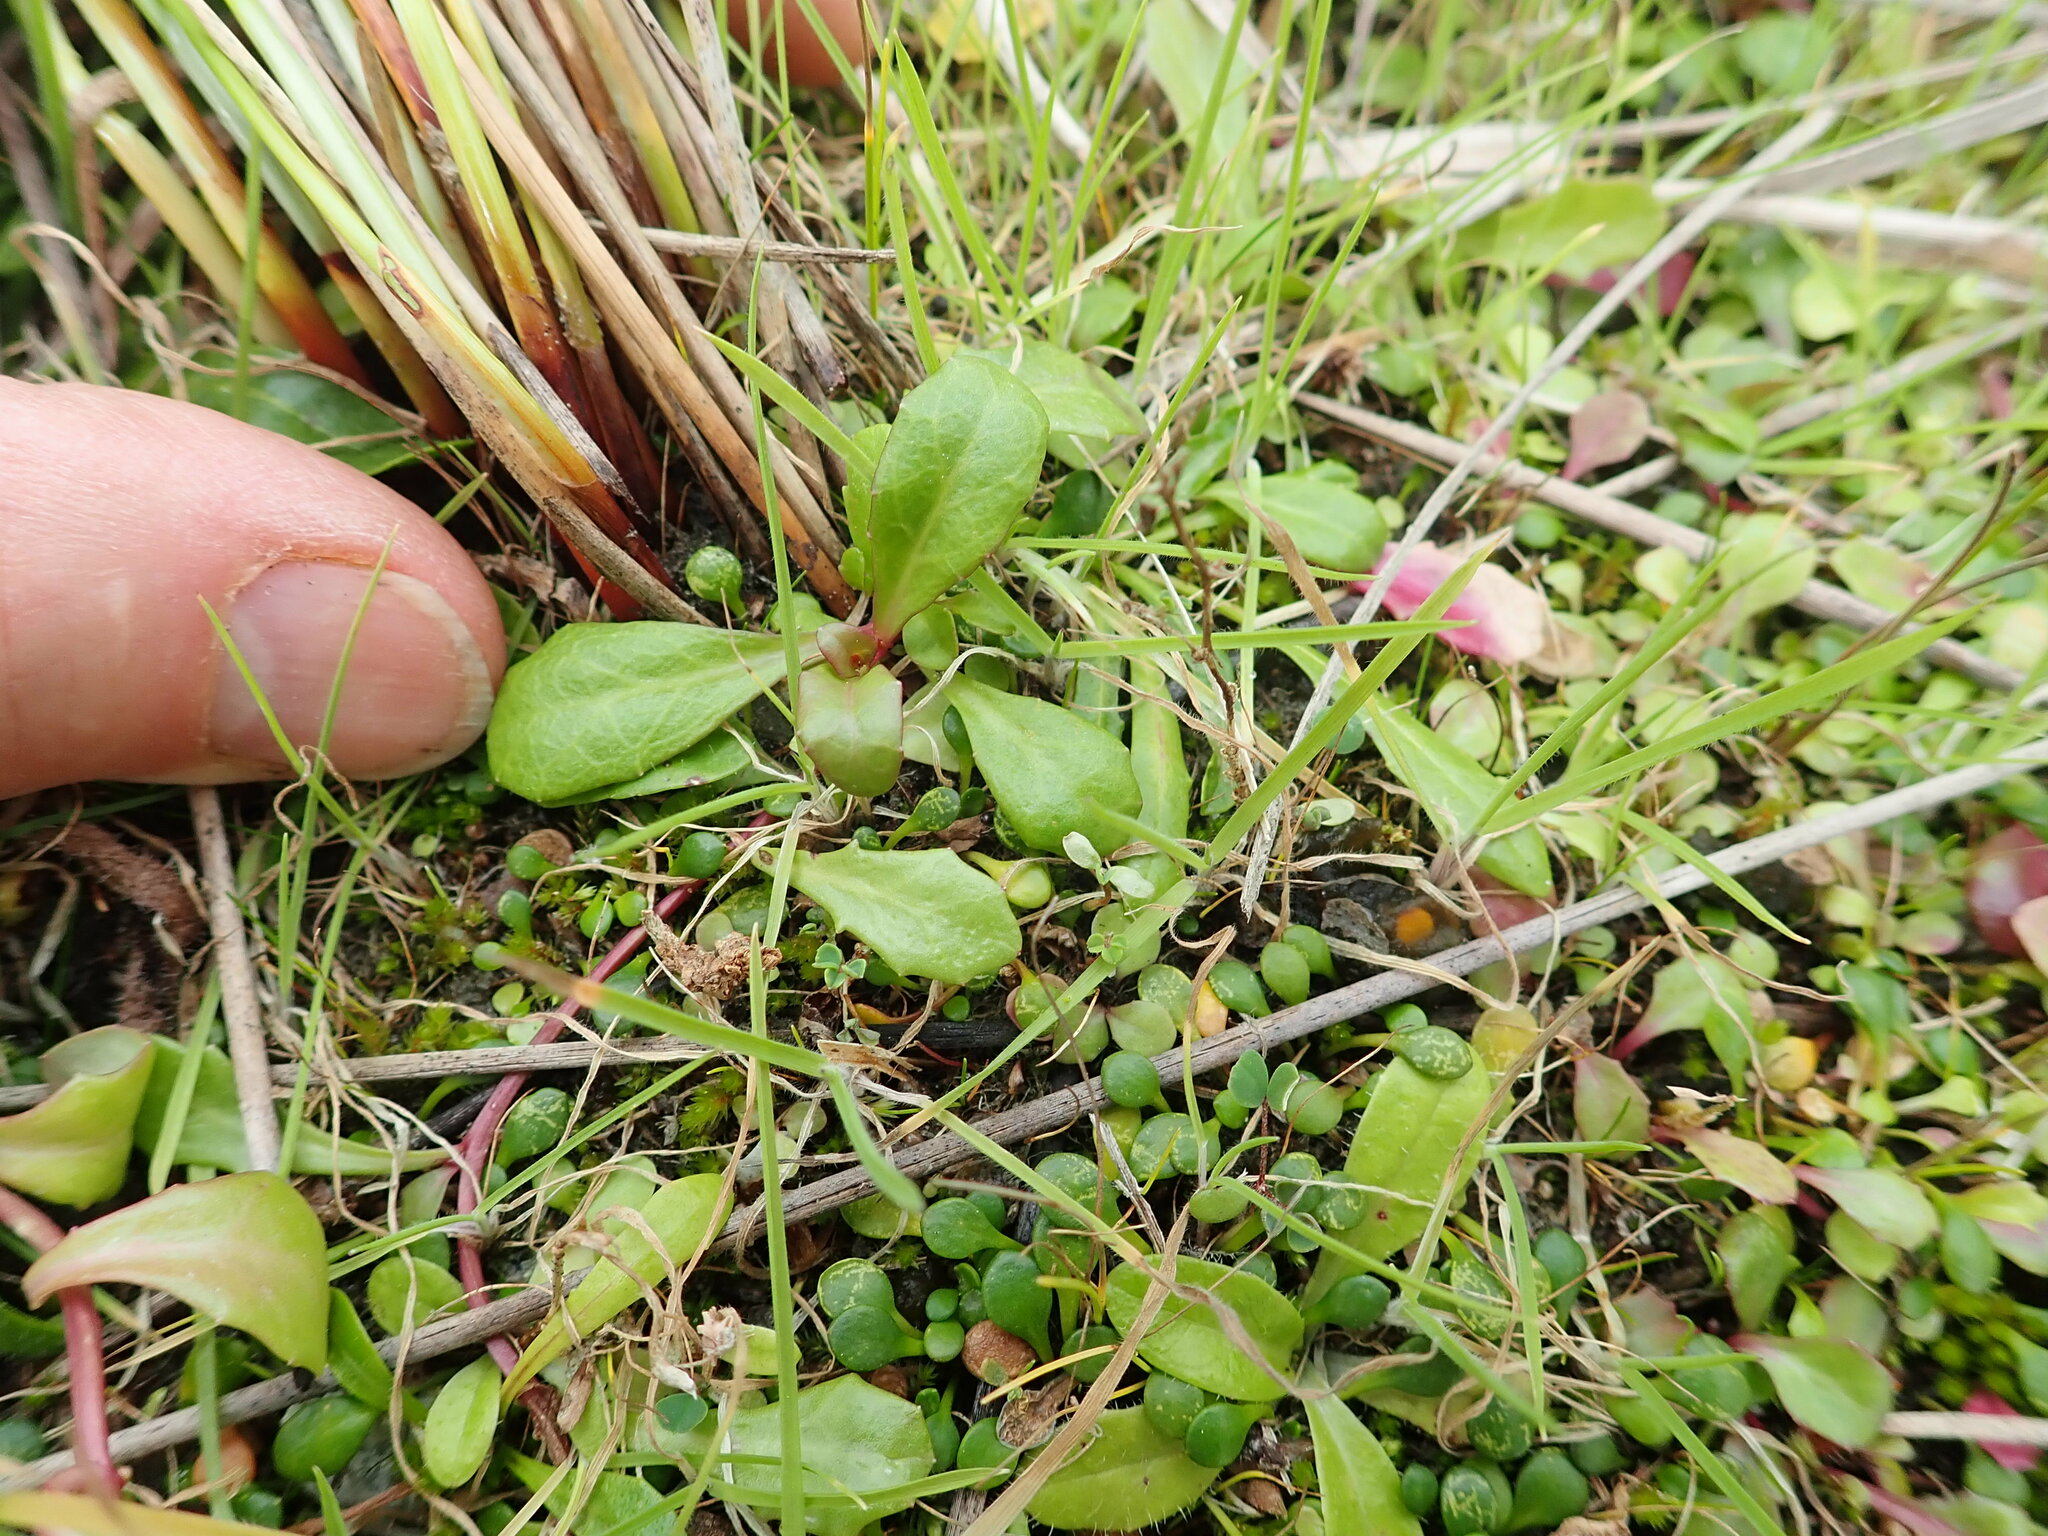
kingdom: Plantae
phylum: Tracheophyta
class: Magnoliopsida
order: Asterales
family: Campanulaceae
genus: Lobelia
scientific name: Lobelia anceps
